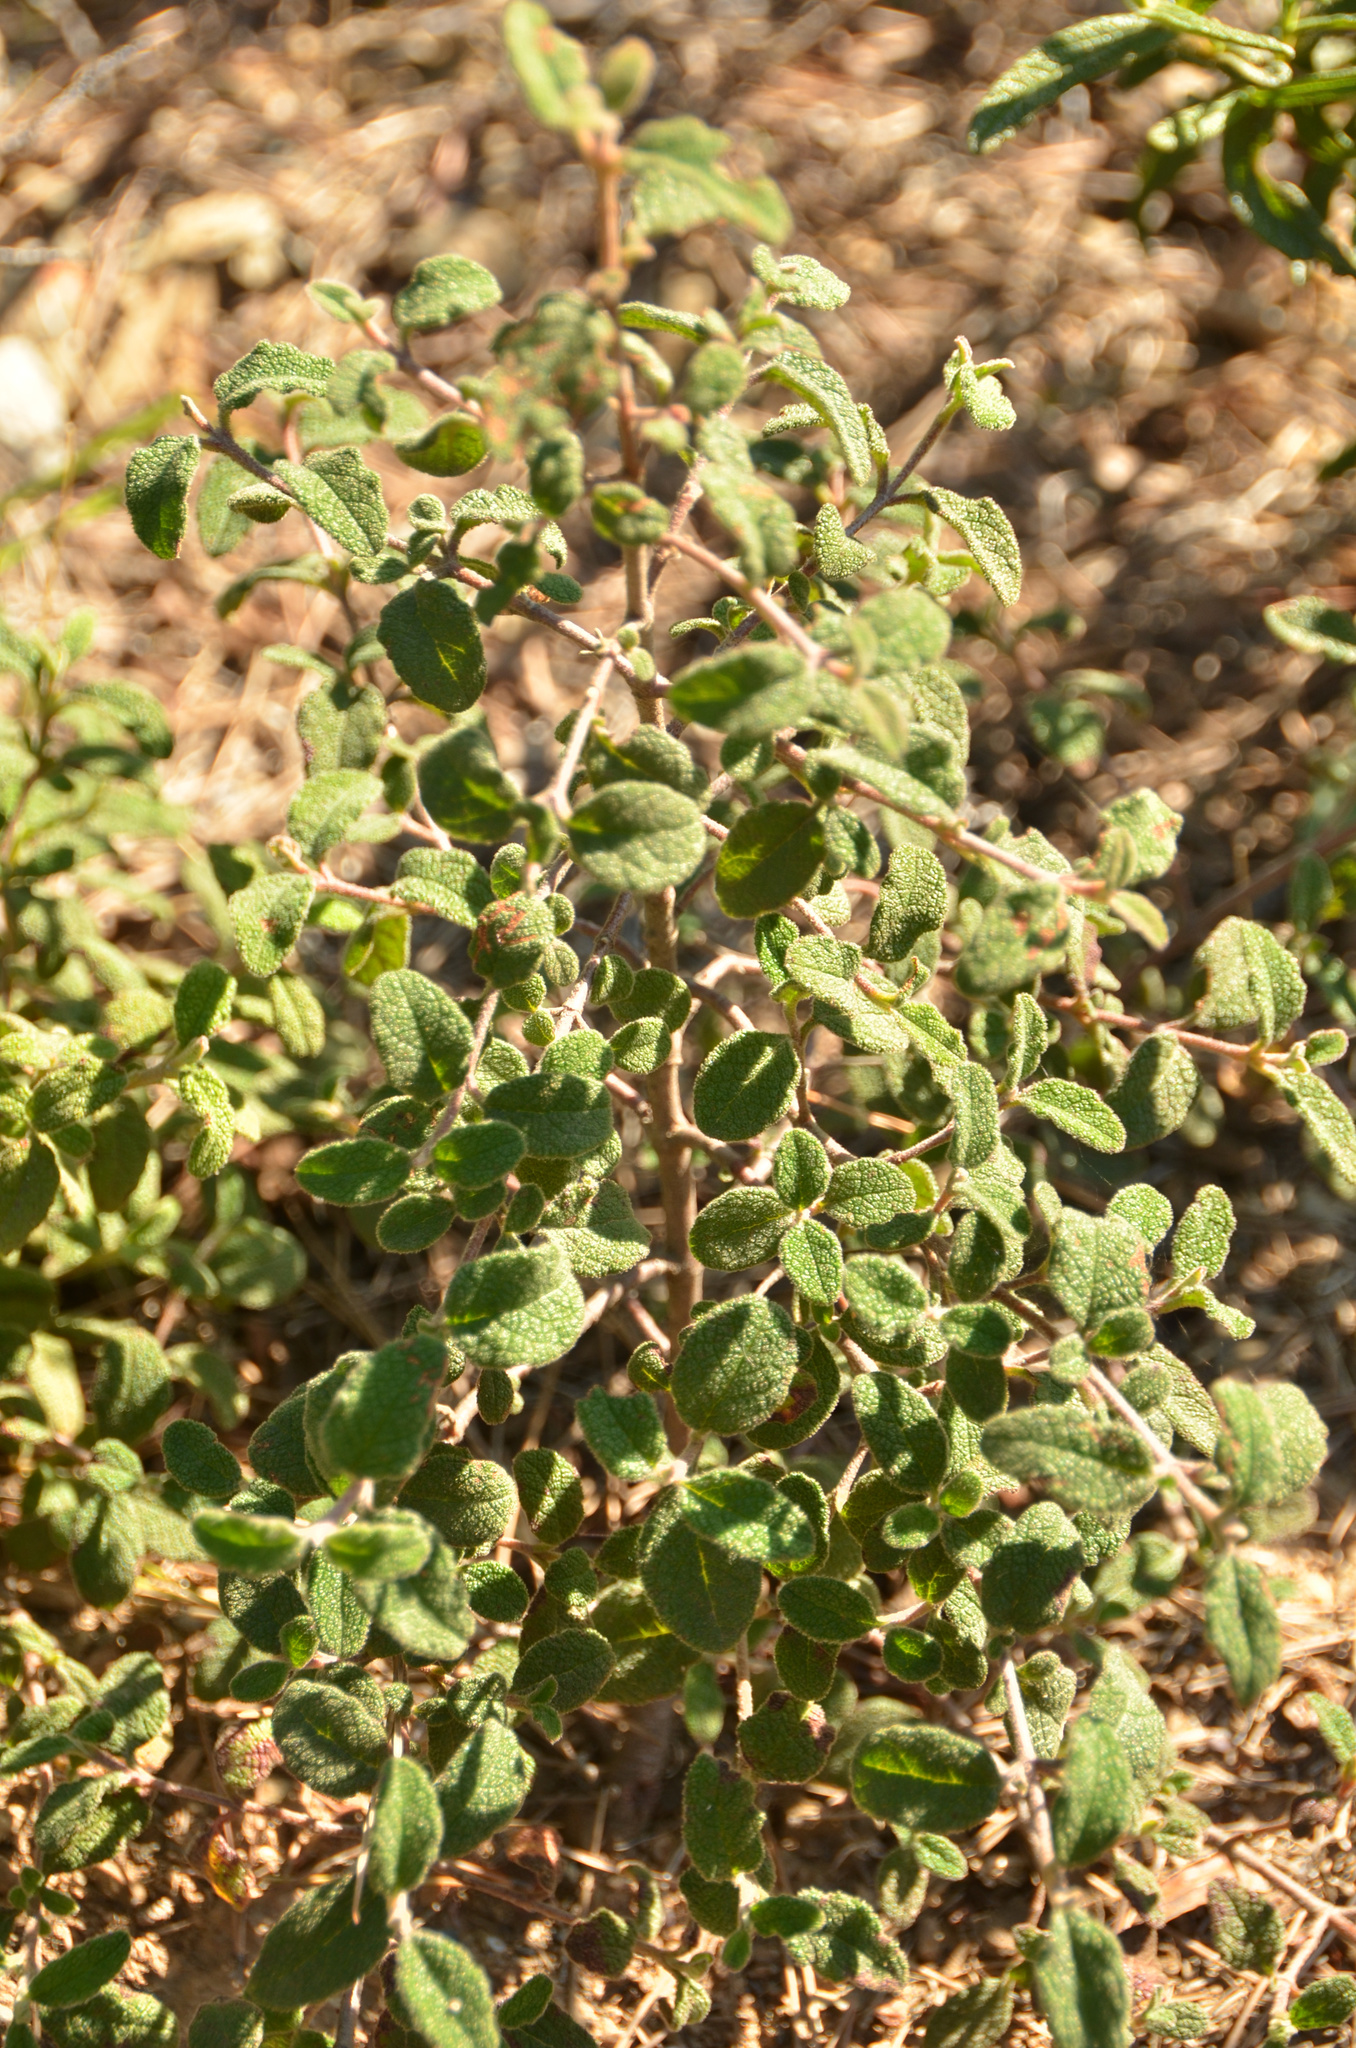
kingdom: Plantae
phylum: Tracheophyta
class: Magnoliopsida
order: Malvales
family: Cistaceae
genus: Cistus
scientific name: Cistus salviifolius
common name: Salvia cistus
